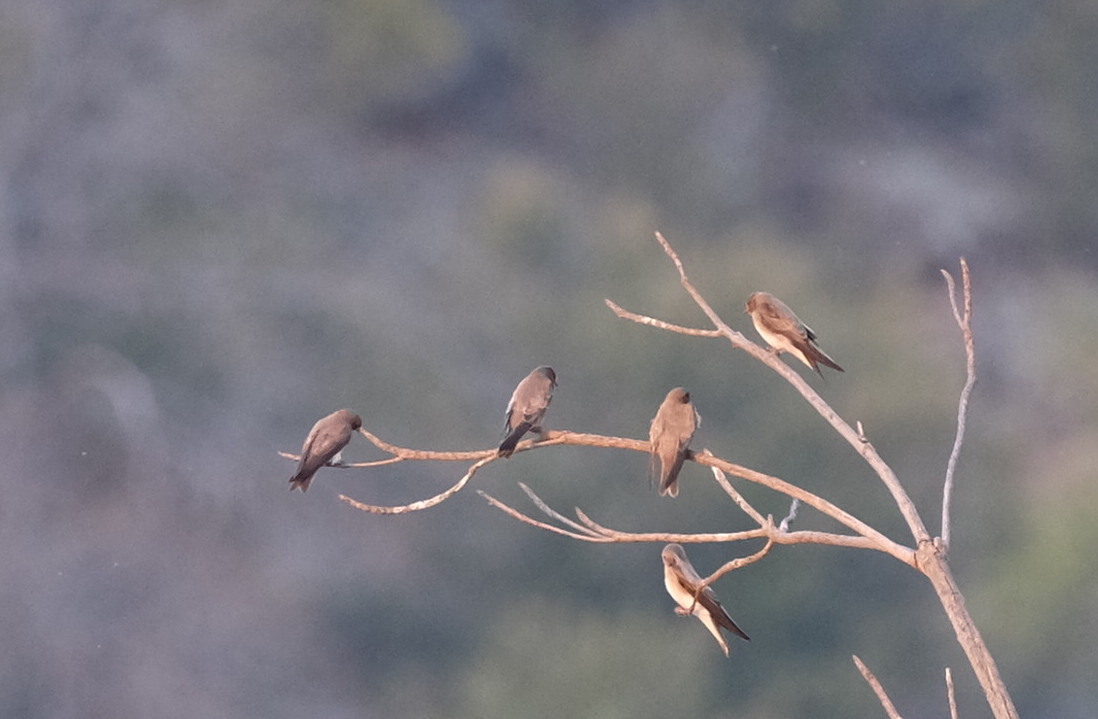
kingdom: Animalia
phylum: Chordata
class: Aves
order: Passeriformes
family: Hirundinidae
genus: Riparia
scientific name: Riparia paludicola
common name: Brown-throated martin
